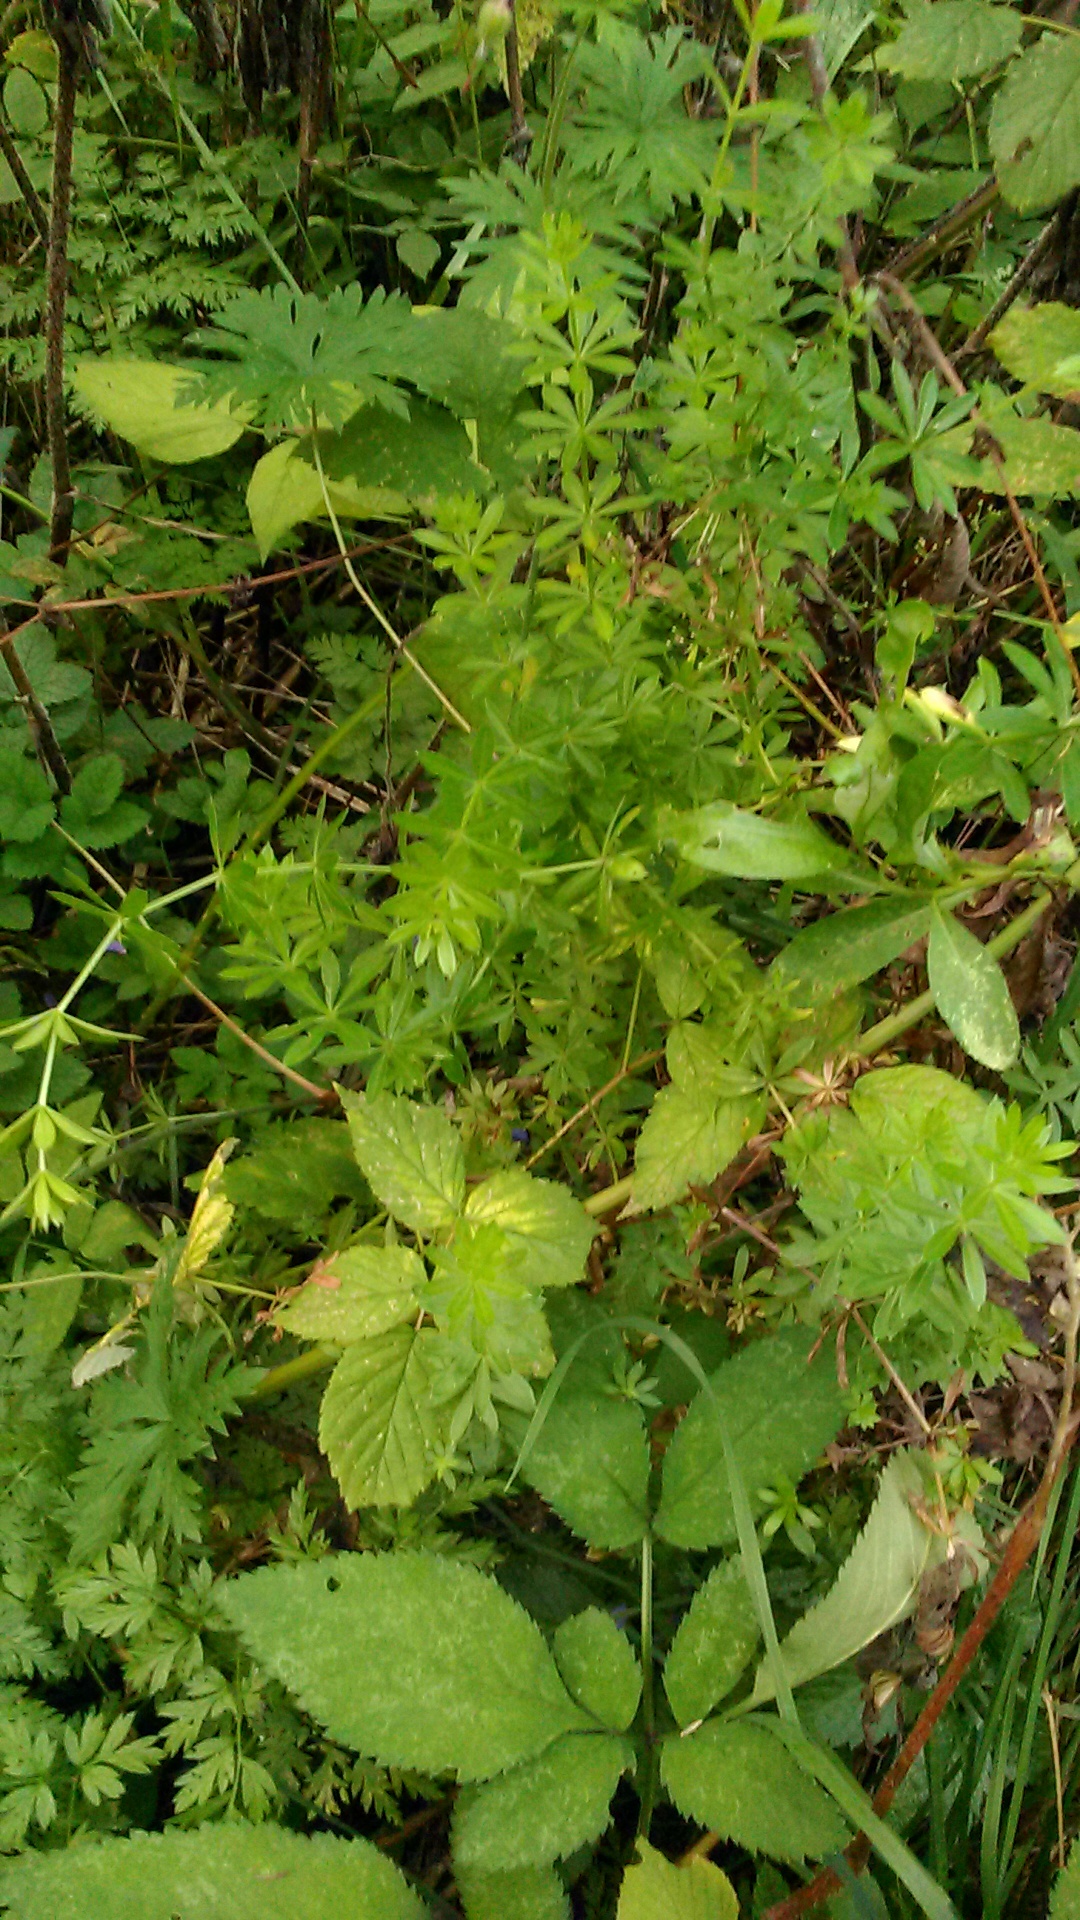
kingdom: Plantae
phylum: Tracheophyta
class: Magnoliopsida
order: Gentianales
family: Rubiaceae
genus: Galium
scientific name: Galium rivale
